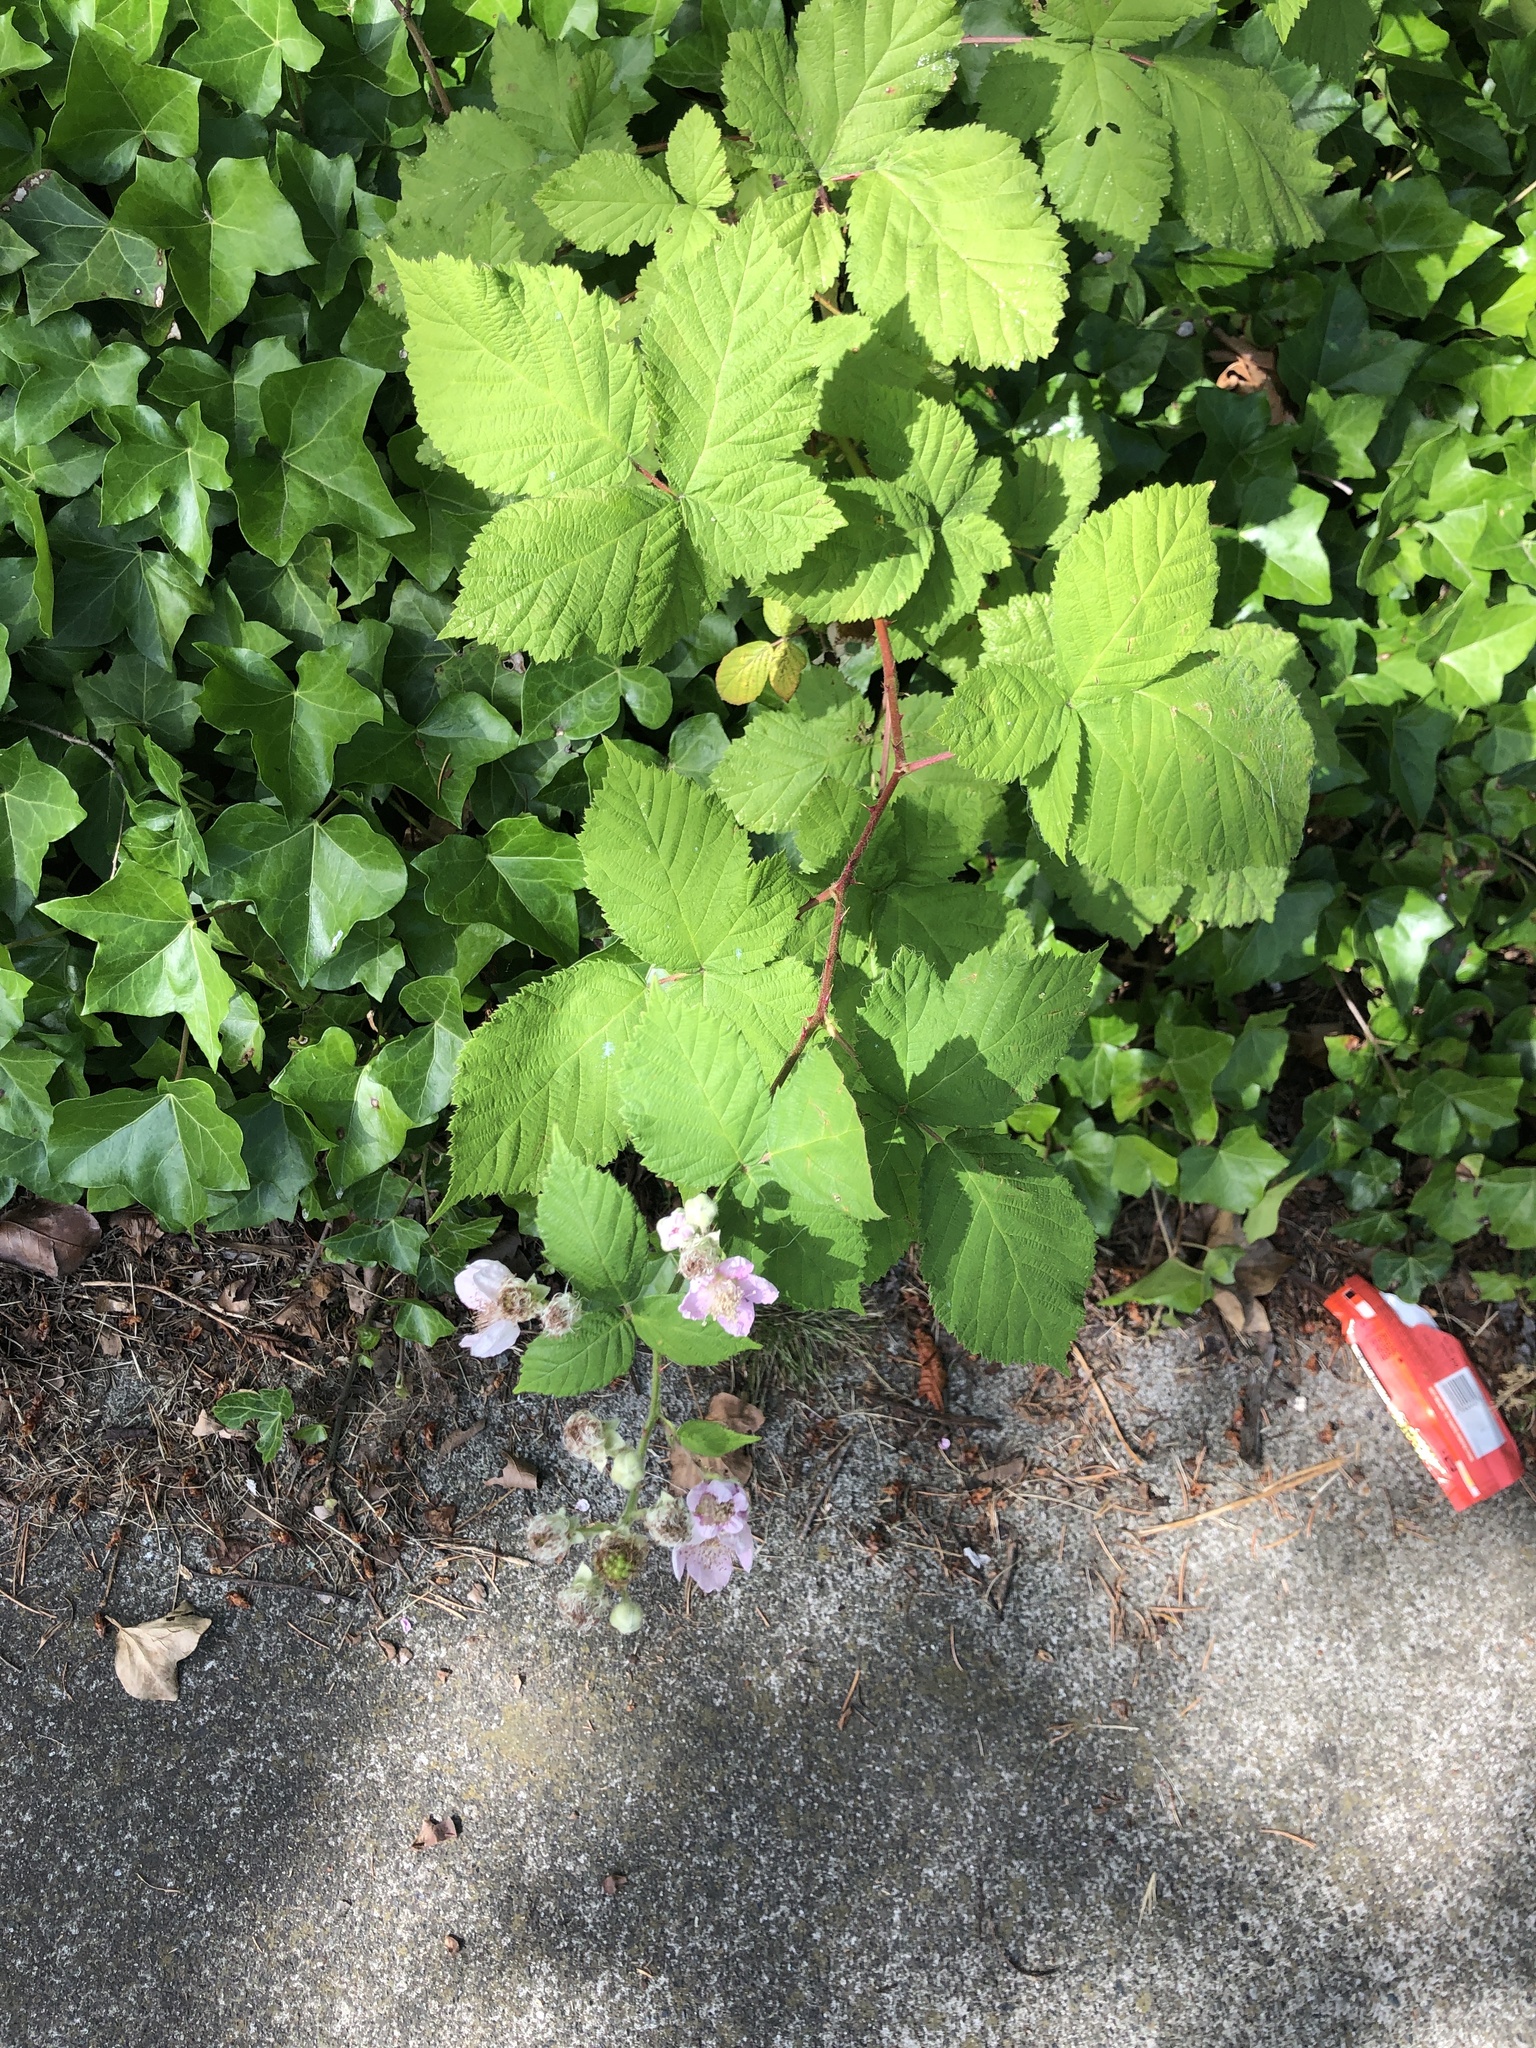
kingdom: Plantae
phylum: Tracheophyta
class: Magnoliopsida
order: Rosales
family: Rosaceae
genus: Rubus
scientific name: Rubus armeniacus
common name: Himalayan blackberry
